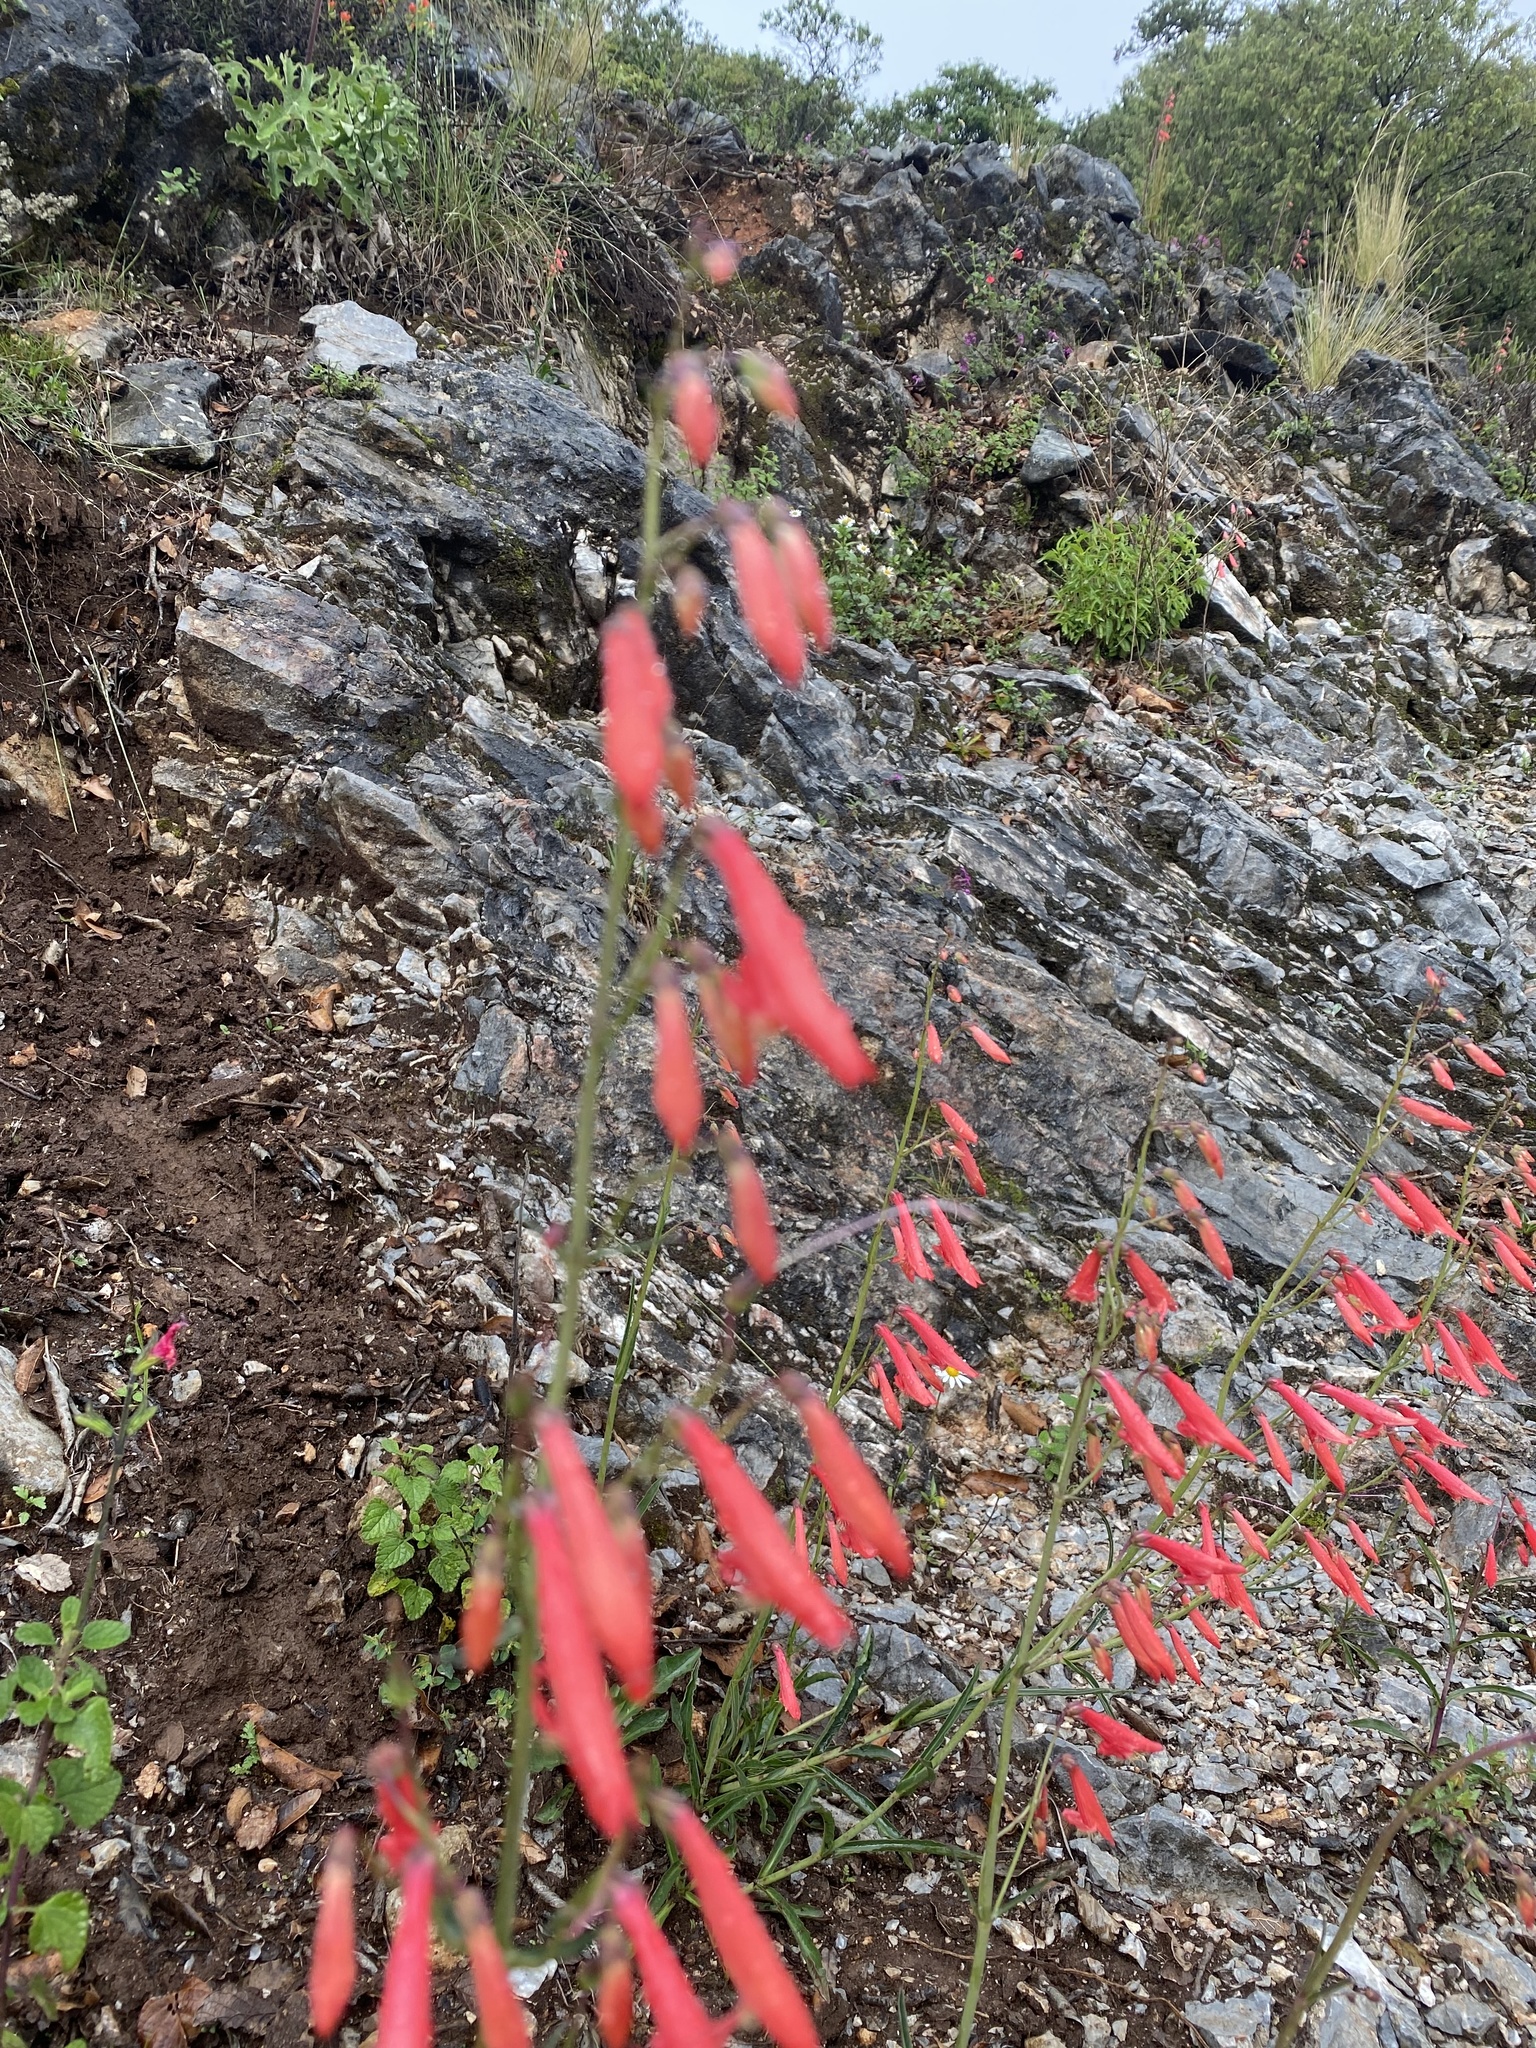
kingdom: Plantae
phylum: Tracheophyta
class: Magnoliopsida
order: Lamiales
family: Plantaginaceae
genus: Penstemon
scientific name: Penstemon barbatus
